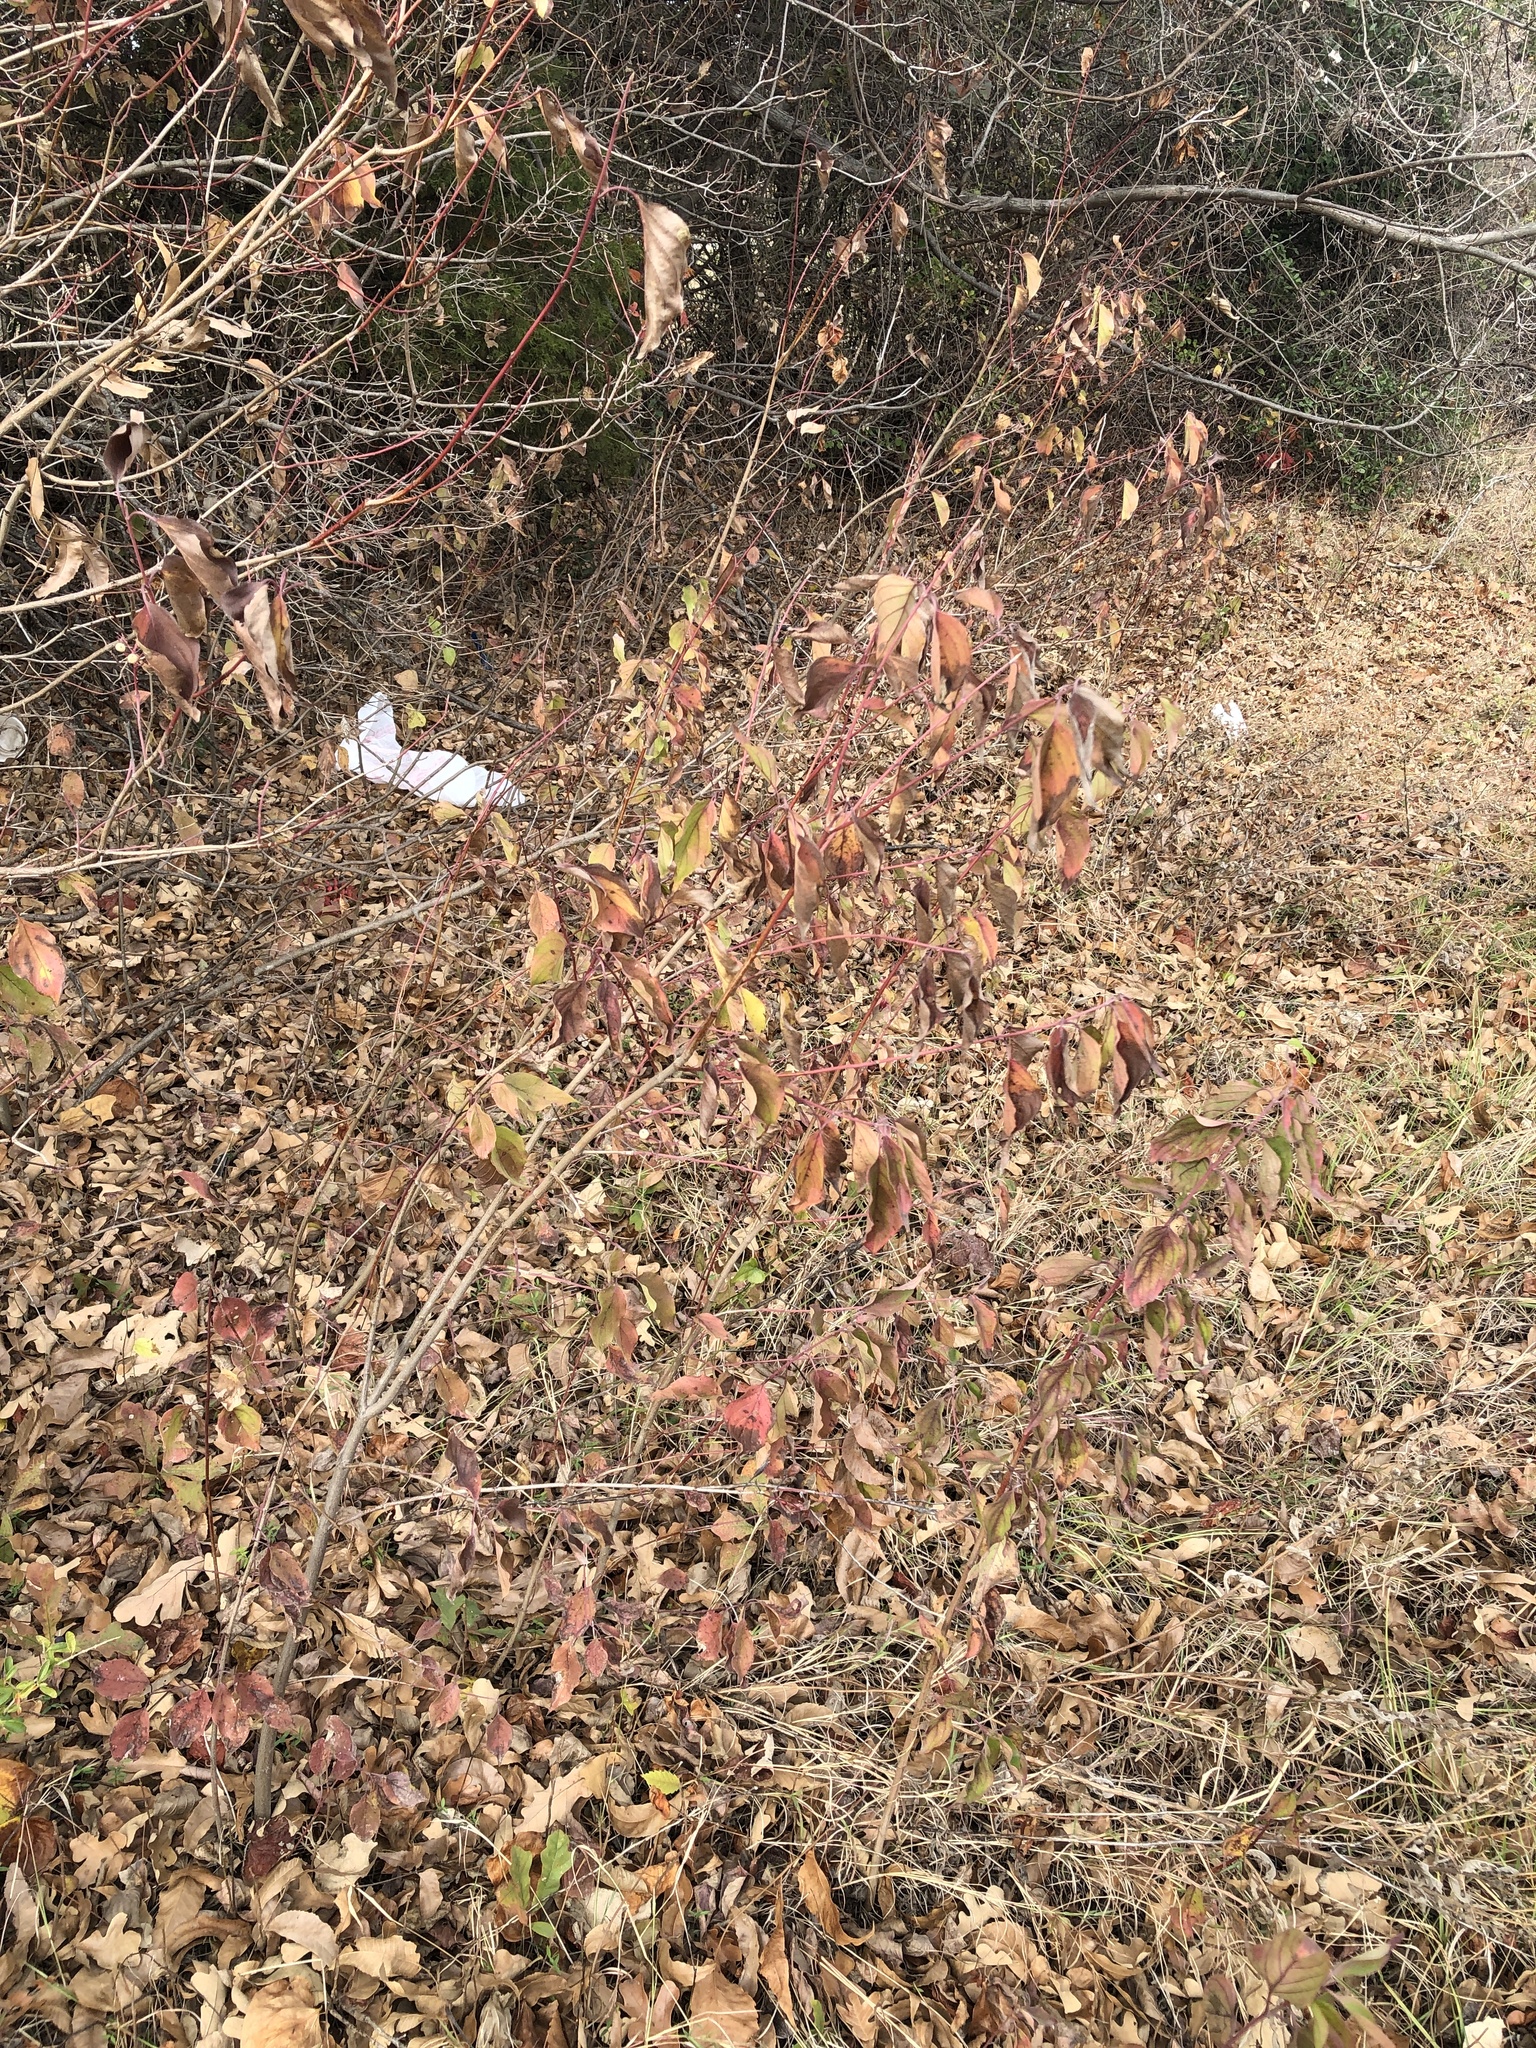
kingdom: Plantae
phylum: Tracheophyta
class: Magnoliopsida
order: Cornales
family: Cornaceae
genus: Cornus
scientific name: Cornus drummondii
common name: Rough-leaf dogwood
